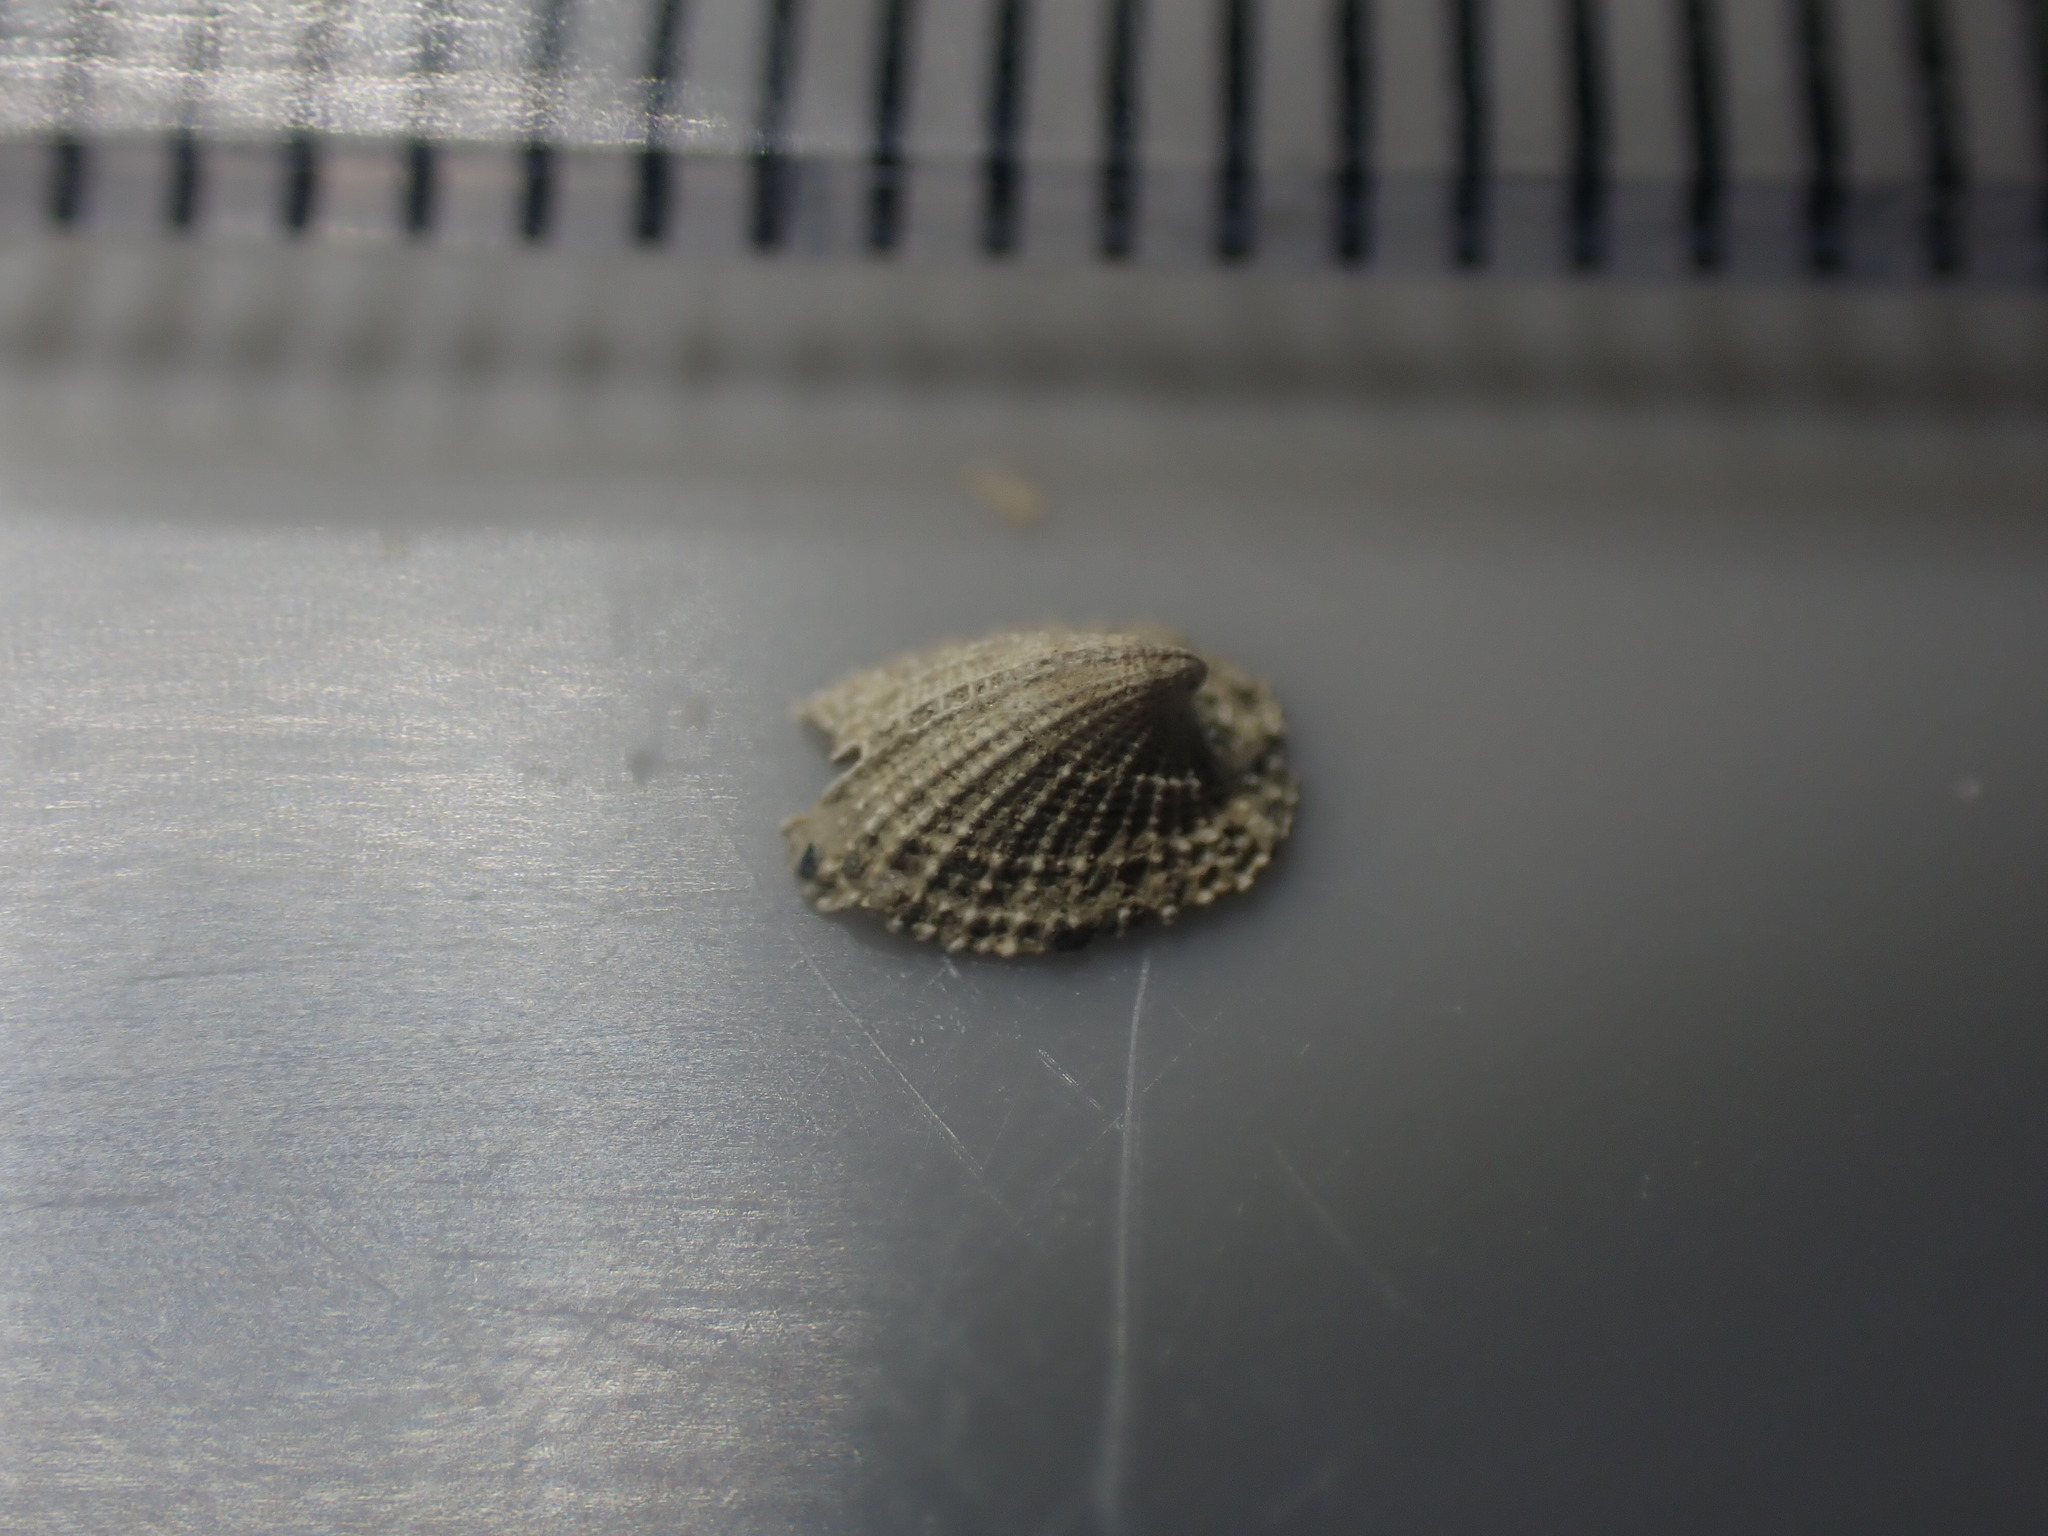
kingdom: Animalia
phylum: Mollusca
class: Gastropoda
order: Lepetellida
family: Fissurellidae
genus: Emarginula
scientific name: Emarginula striatula
